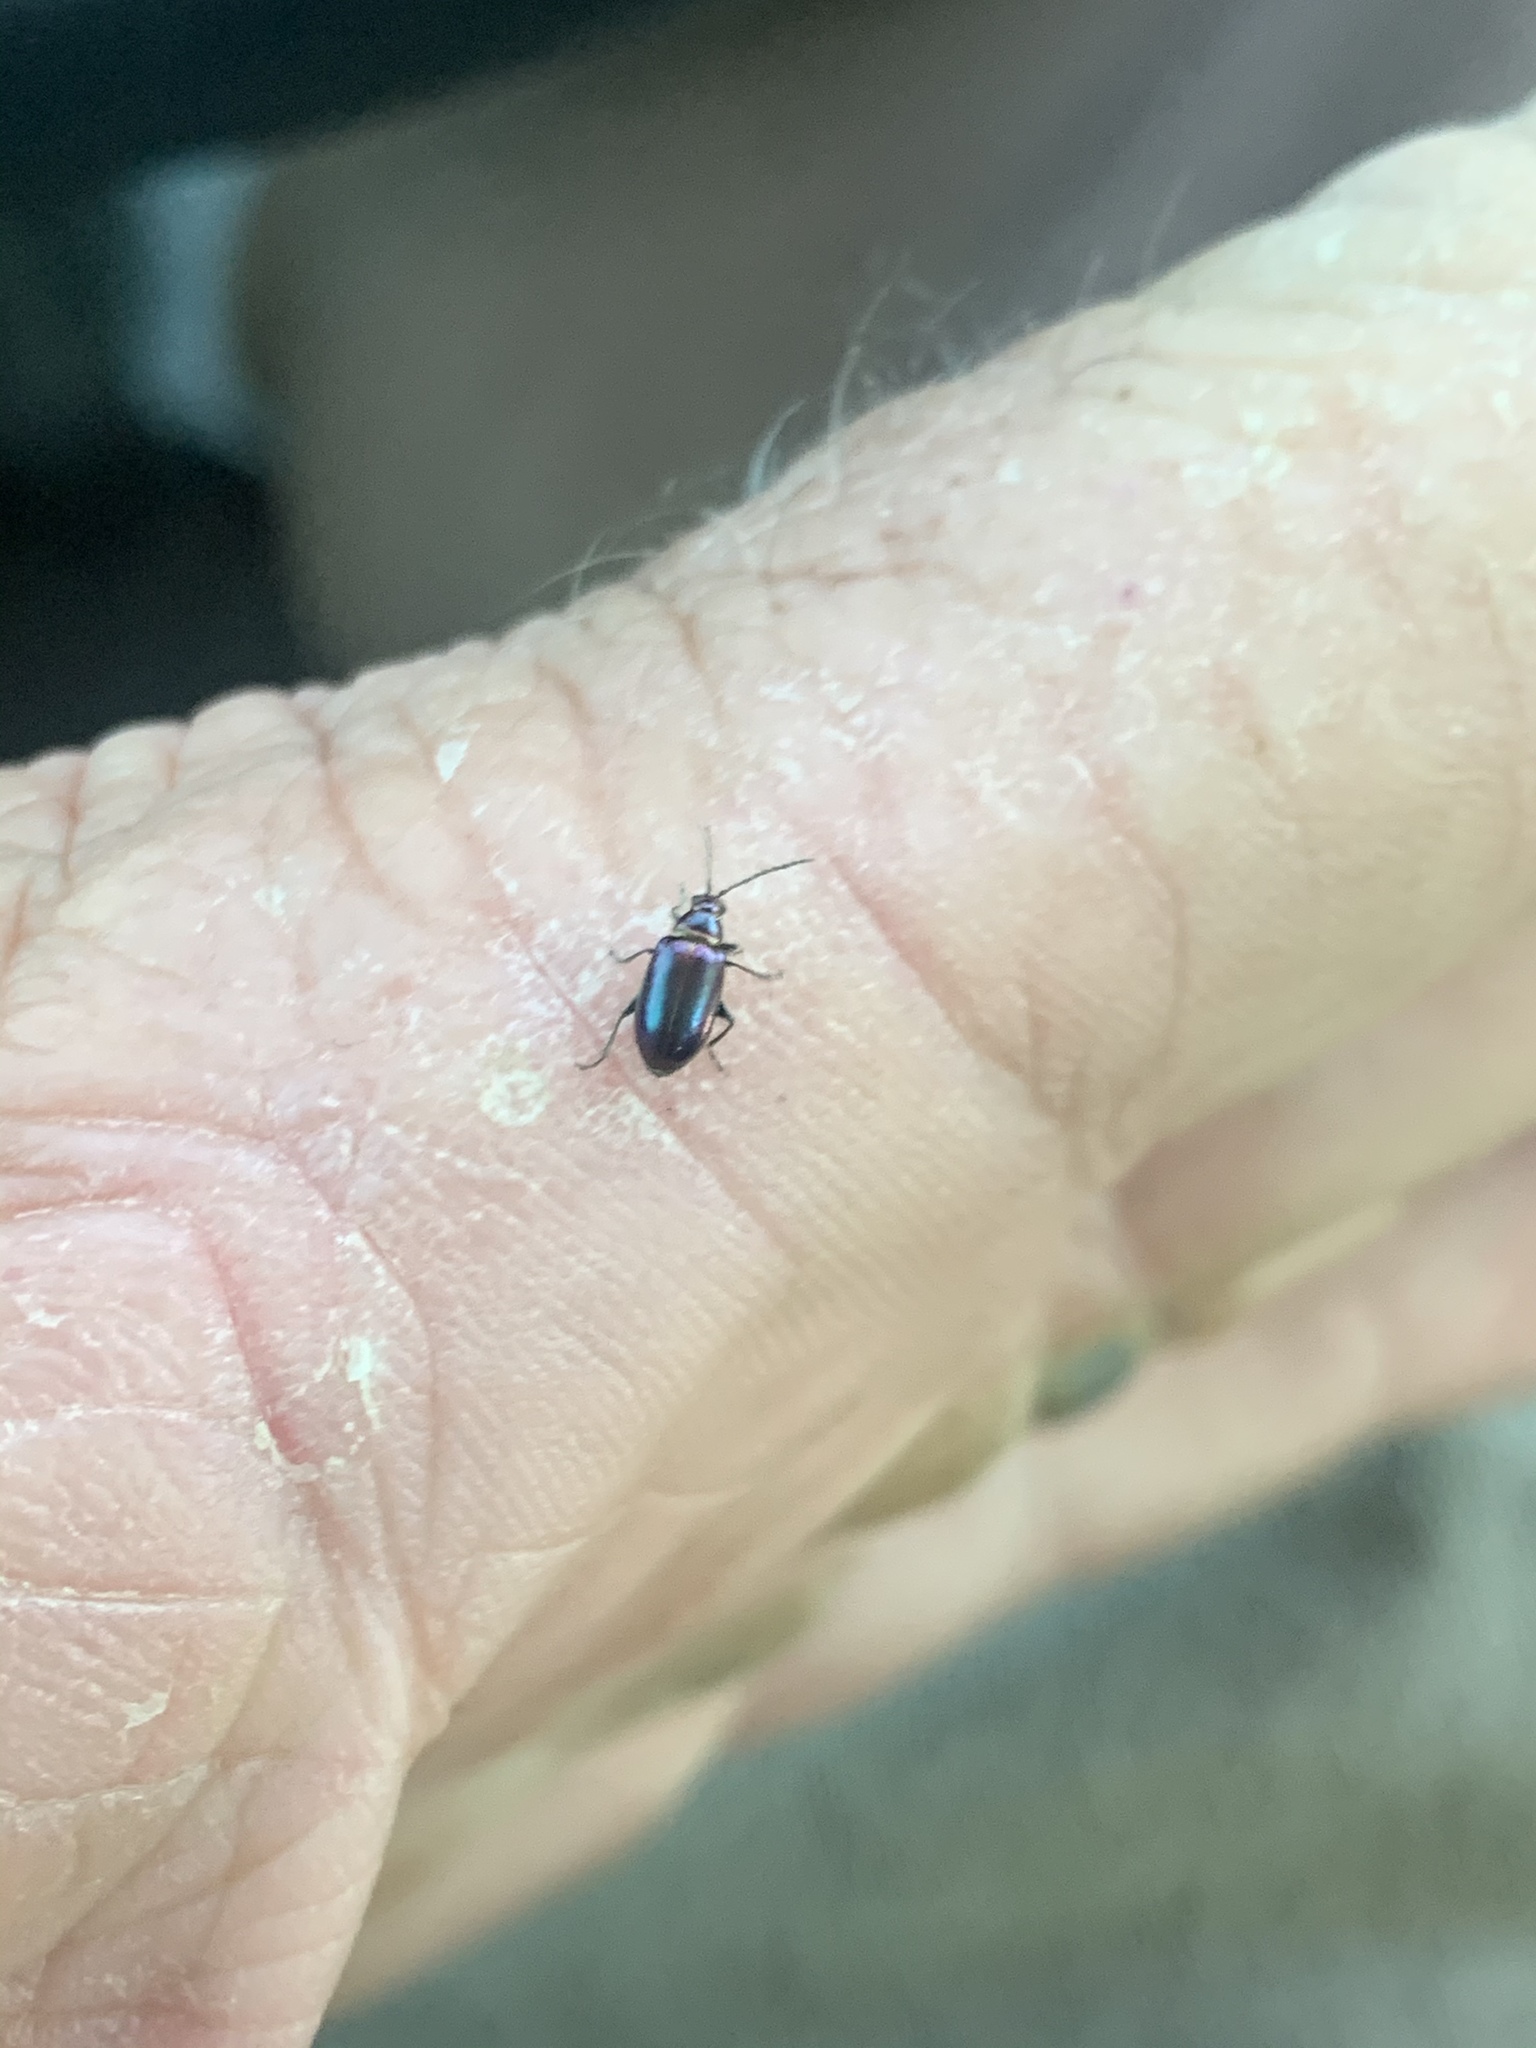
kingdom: Animalia
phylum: Arthropoda
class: Insecta
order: Coleoptera
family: Chrysomelidae
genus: Altica
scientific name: Altica torquata
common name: Leaf beetle
